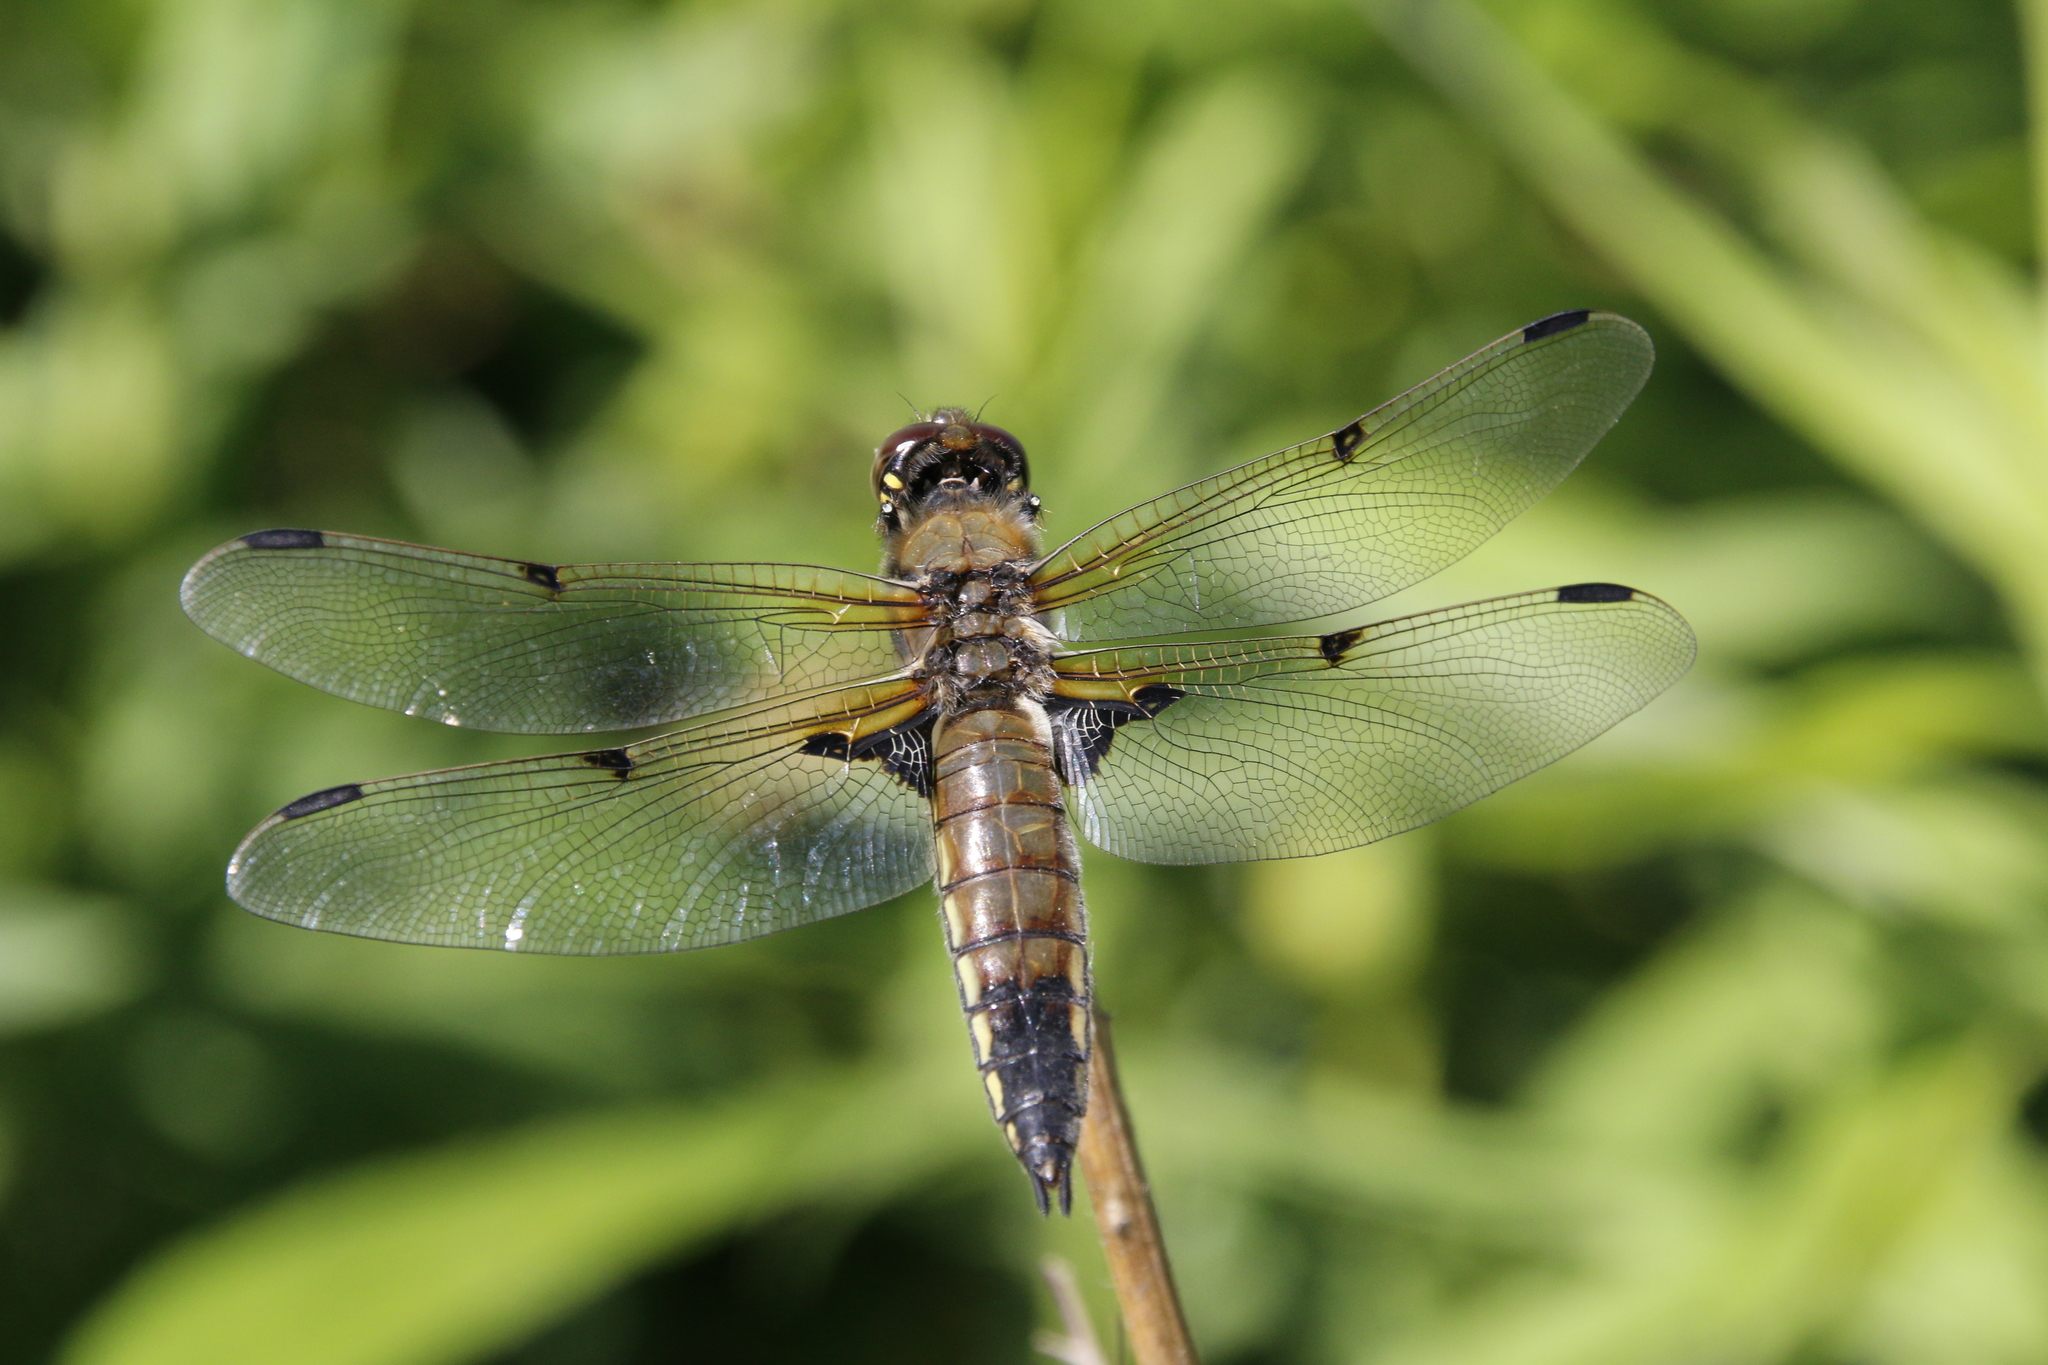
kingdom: Animalia
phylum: Arthropoda
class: Insecta
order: Odonata
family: Libellulidae
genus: Libellula
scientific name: Libellula quadrimaculata
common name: Four-spotted chaser
